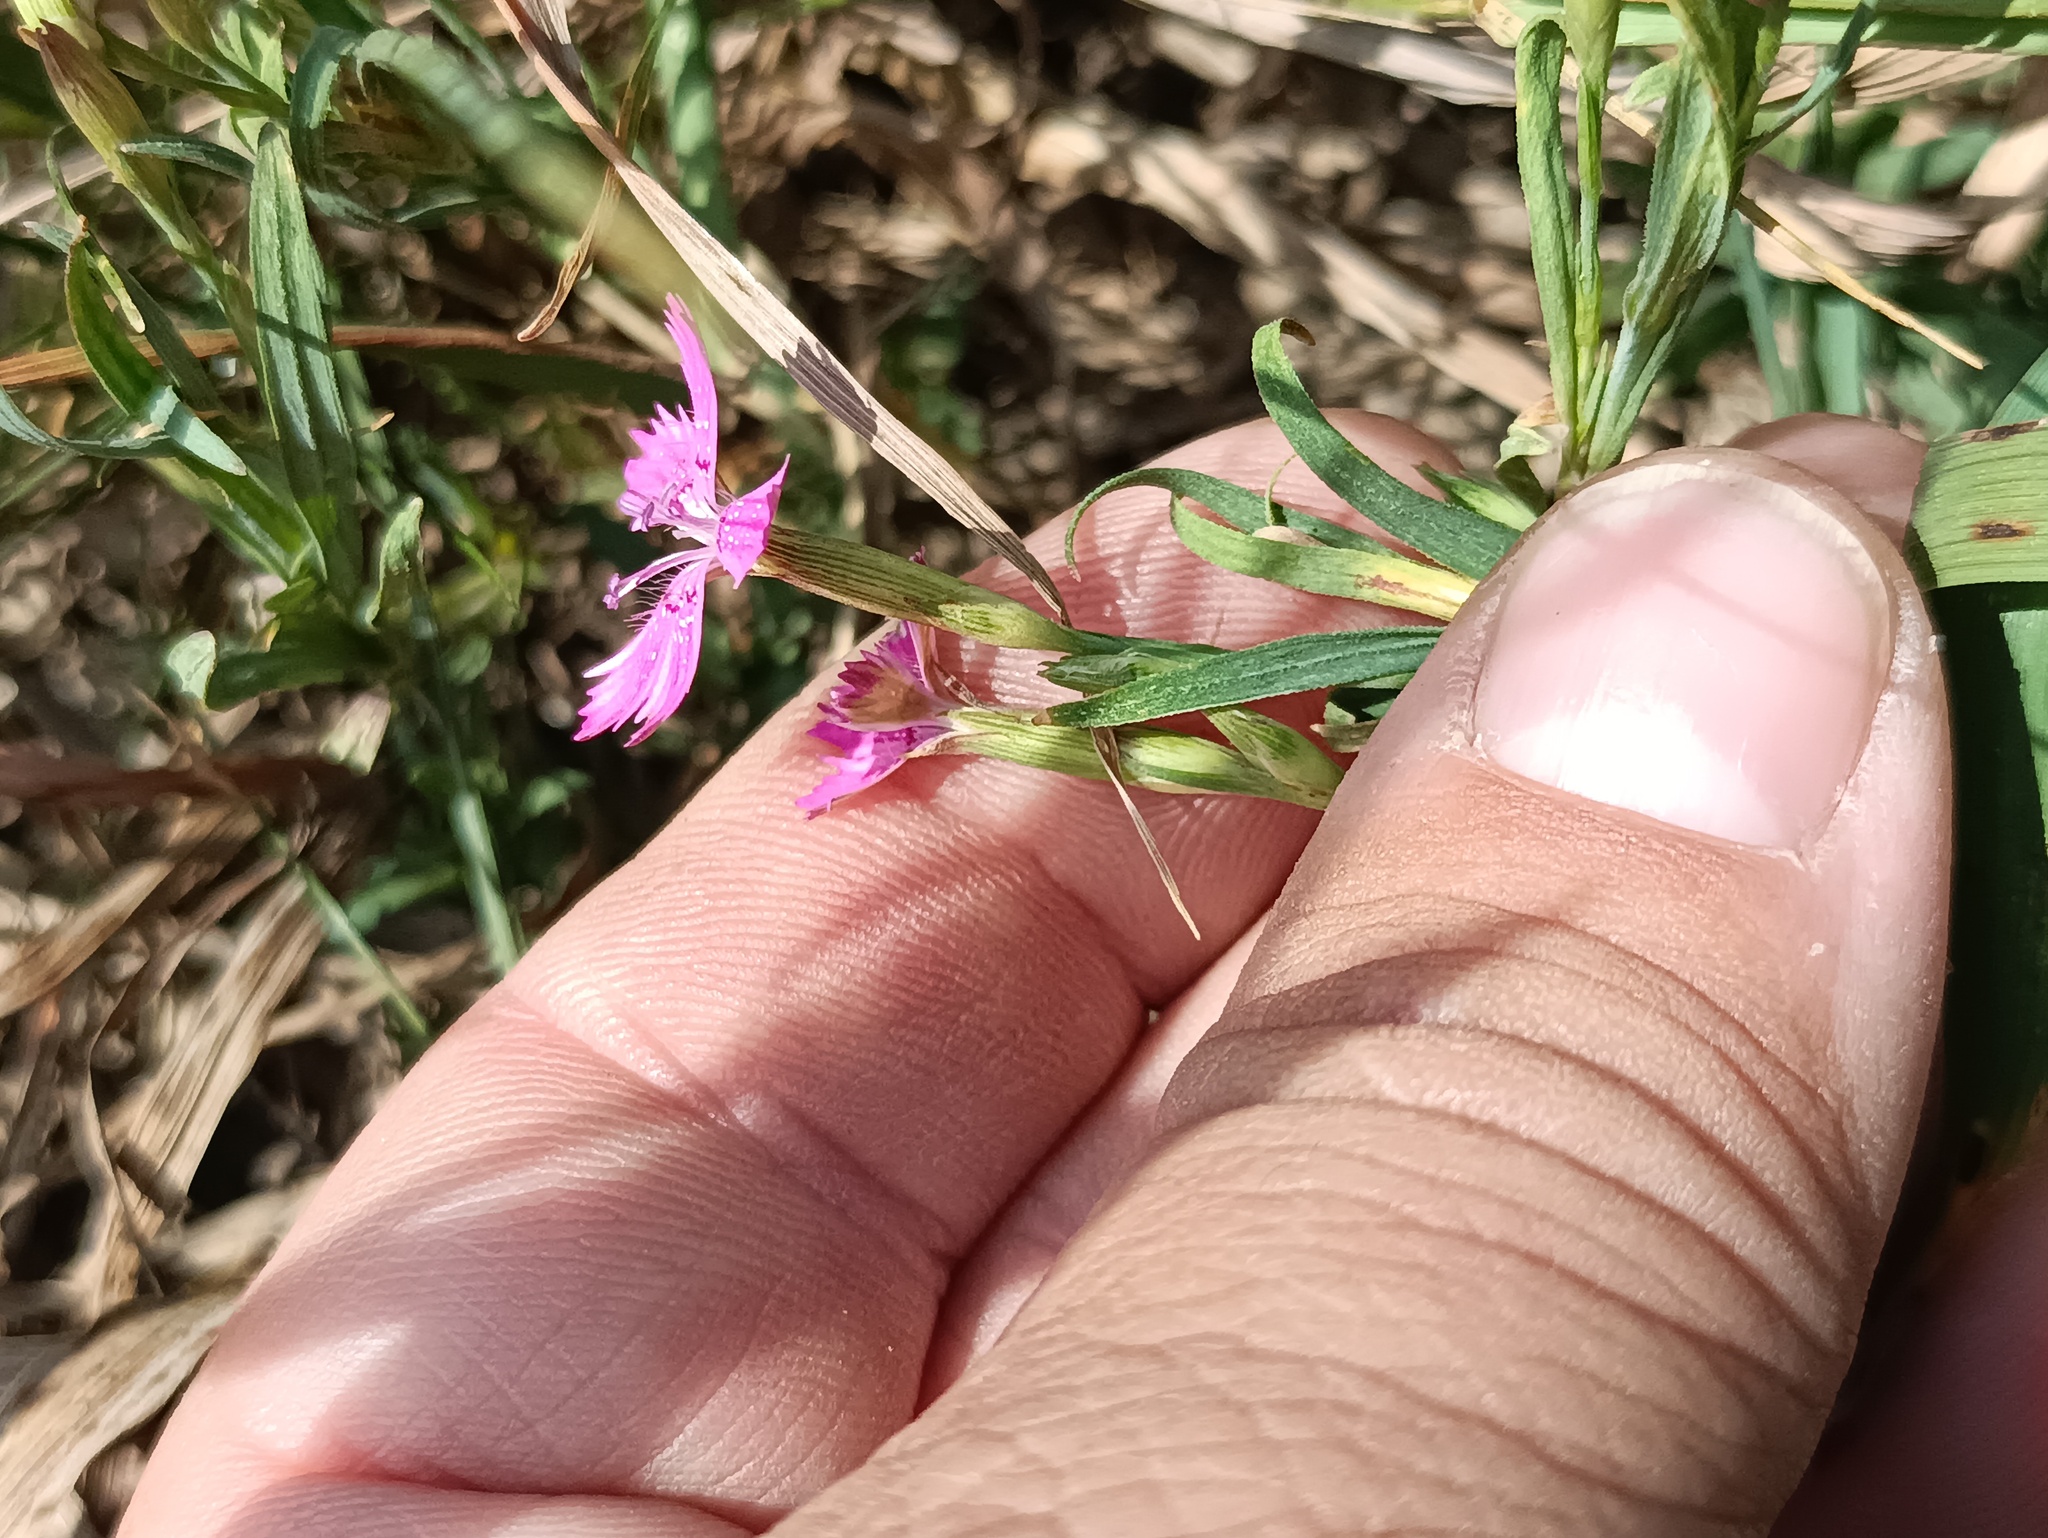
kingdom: Plantae
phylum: Tracheophyta
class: Magnoliopsida
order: Caryophyllales
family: Caryophyllaceae
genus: Dianthus
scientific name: Dianthus deltoides
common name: Maiden pink
